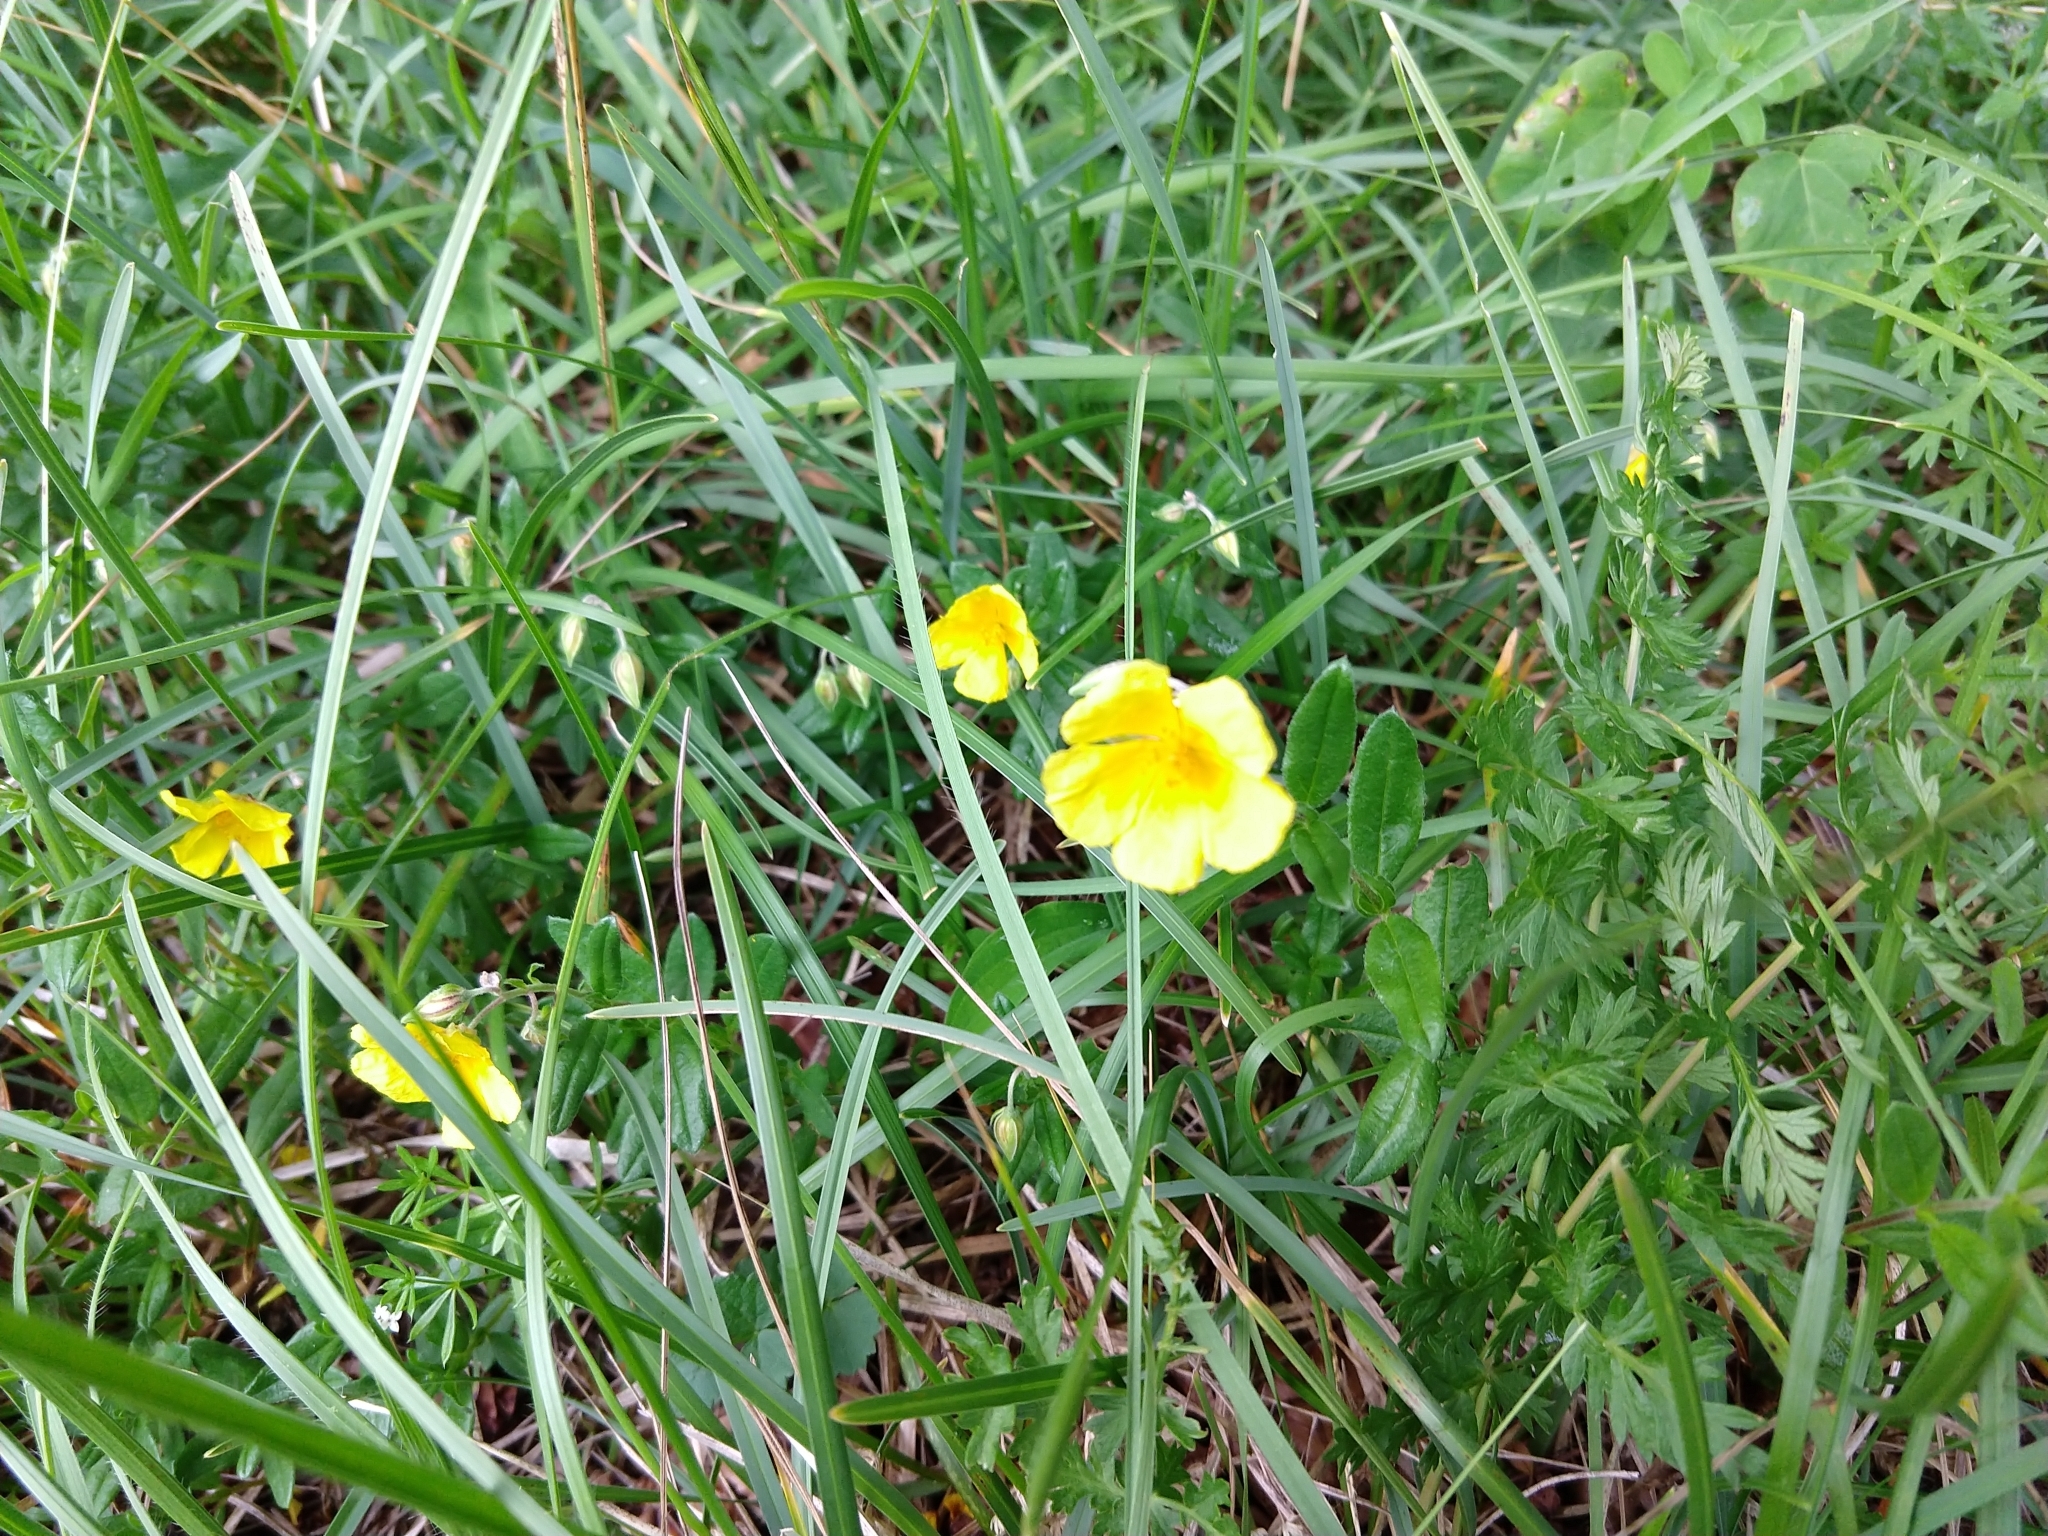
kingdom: Plantae
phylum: Tracheophyta
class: Magnoliopsida
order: Malvales
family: Cistaceae
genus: Helianthemum
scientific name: Helianthemum nummularium
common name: Common rock-rose
